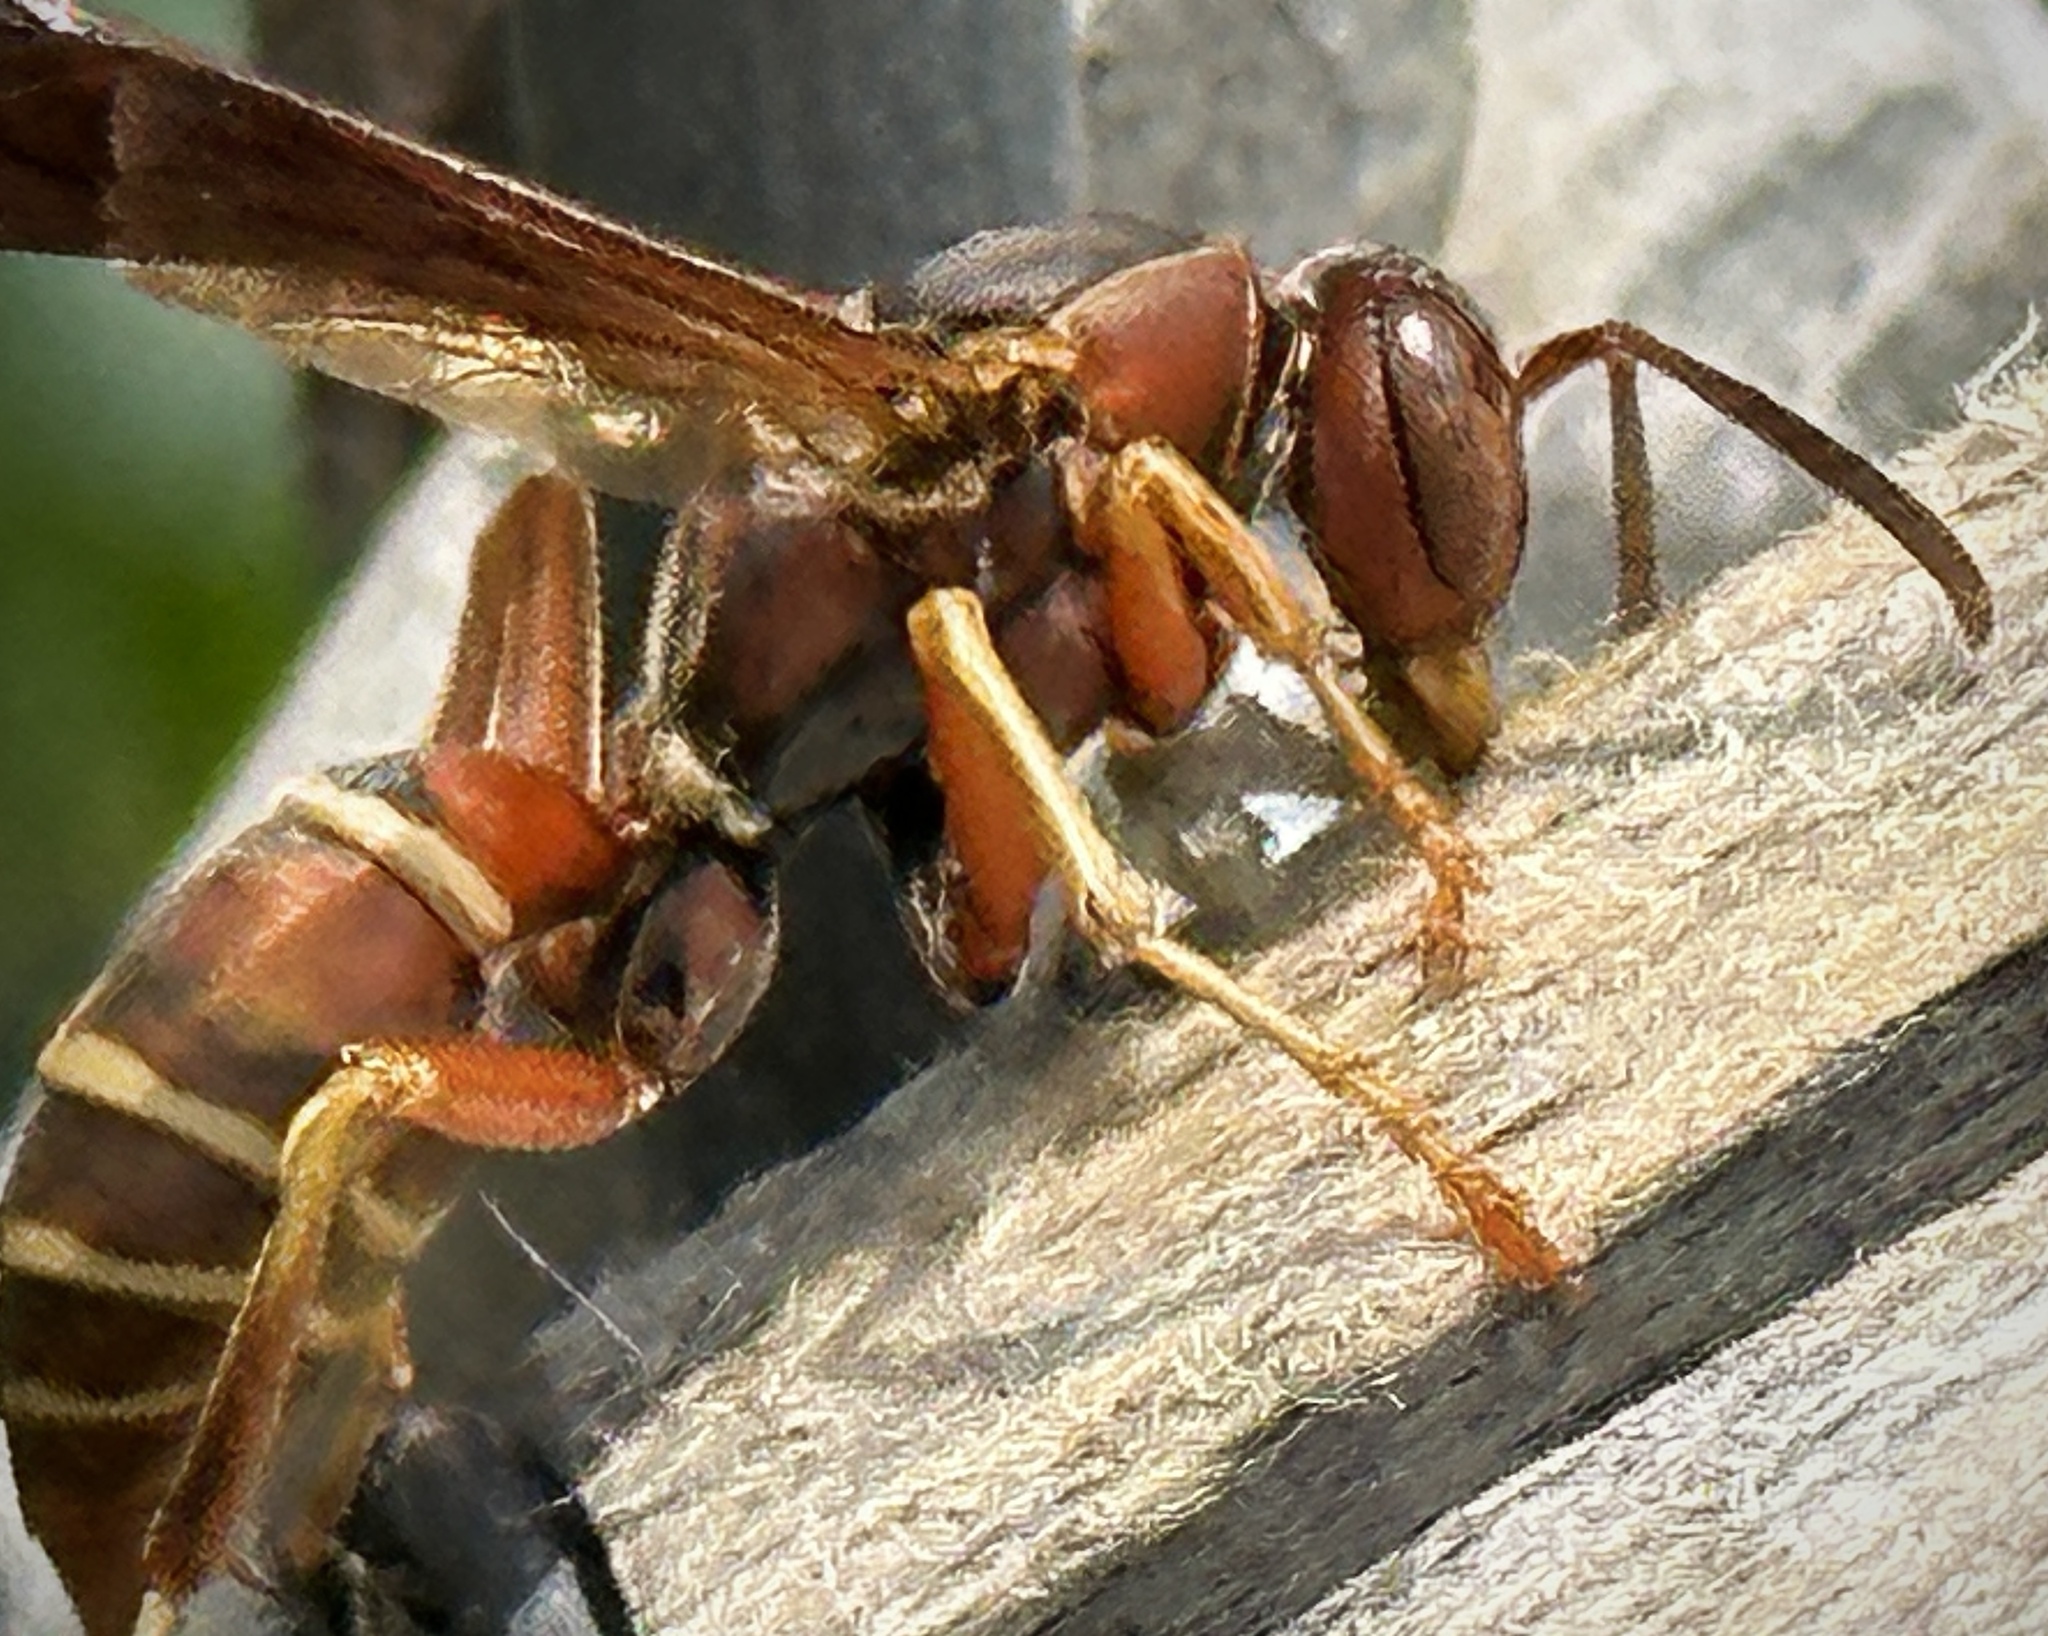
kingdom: Animalia
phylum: Arthropoda
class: Insecta
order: Hymenoptera
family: Eumenidae
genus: Polistes
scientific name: Polistes fuscatus
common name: Dark paper wasp
